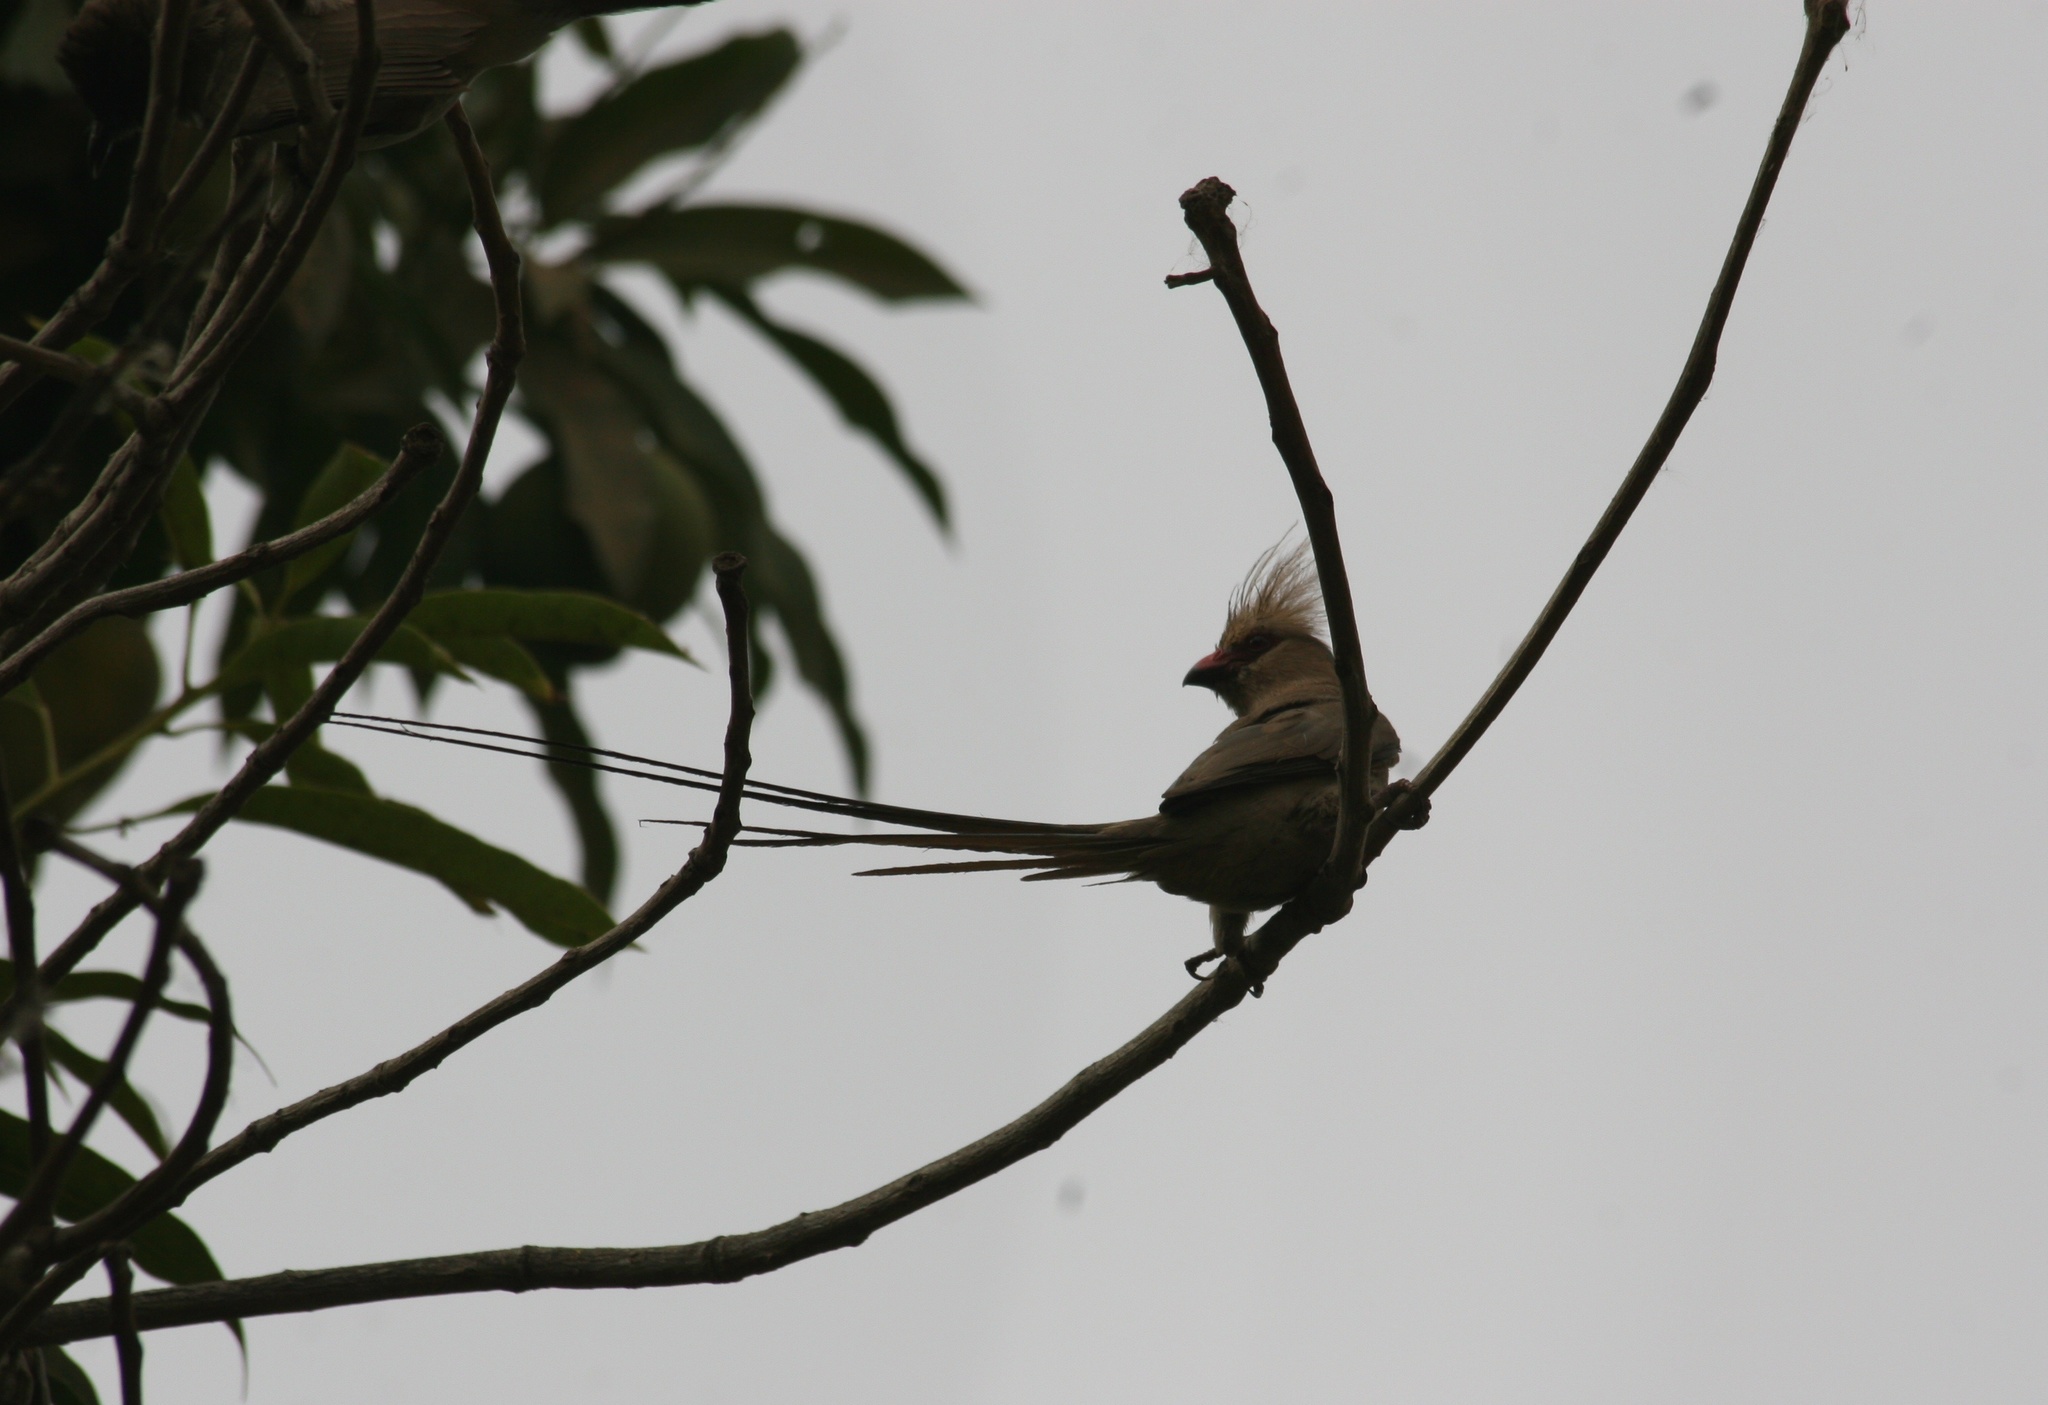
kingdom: Animalia
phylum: Chordata
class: Aves
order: Coliiformes
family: Coliidae
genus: Urocolius
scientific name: Urocolius macrourus
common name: Blue-naped mousebird
